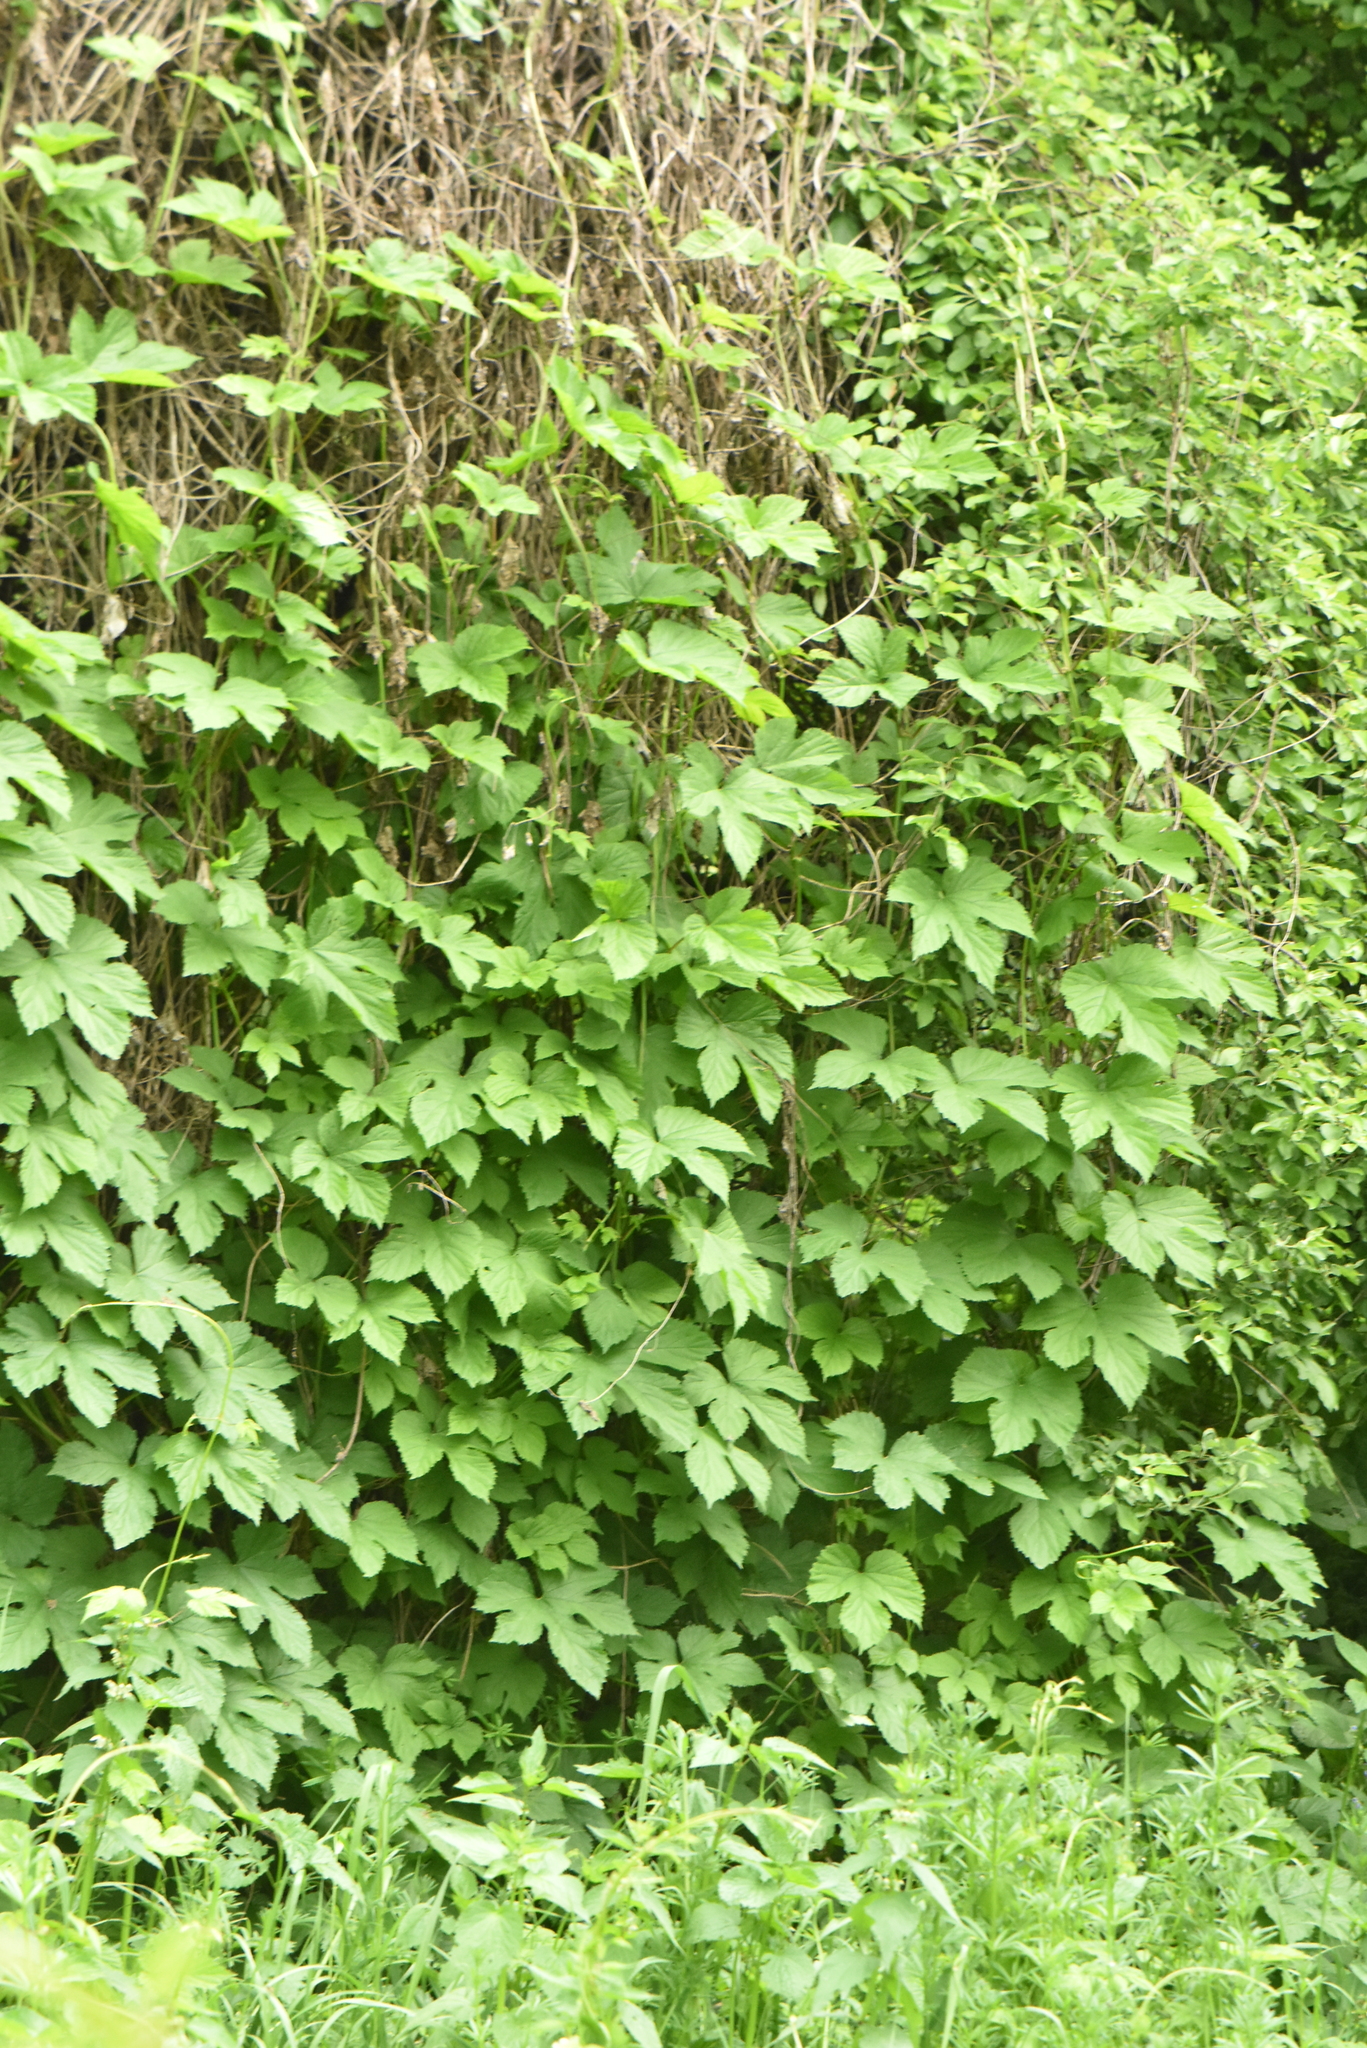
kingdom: Plantae
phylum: Tracheophyta
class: Magnoliopsida
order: Rosales
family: Cannabaceae
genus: Humulus
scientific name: Humulus lupulus
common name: Hop
